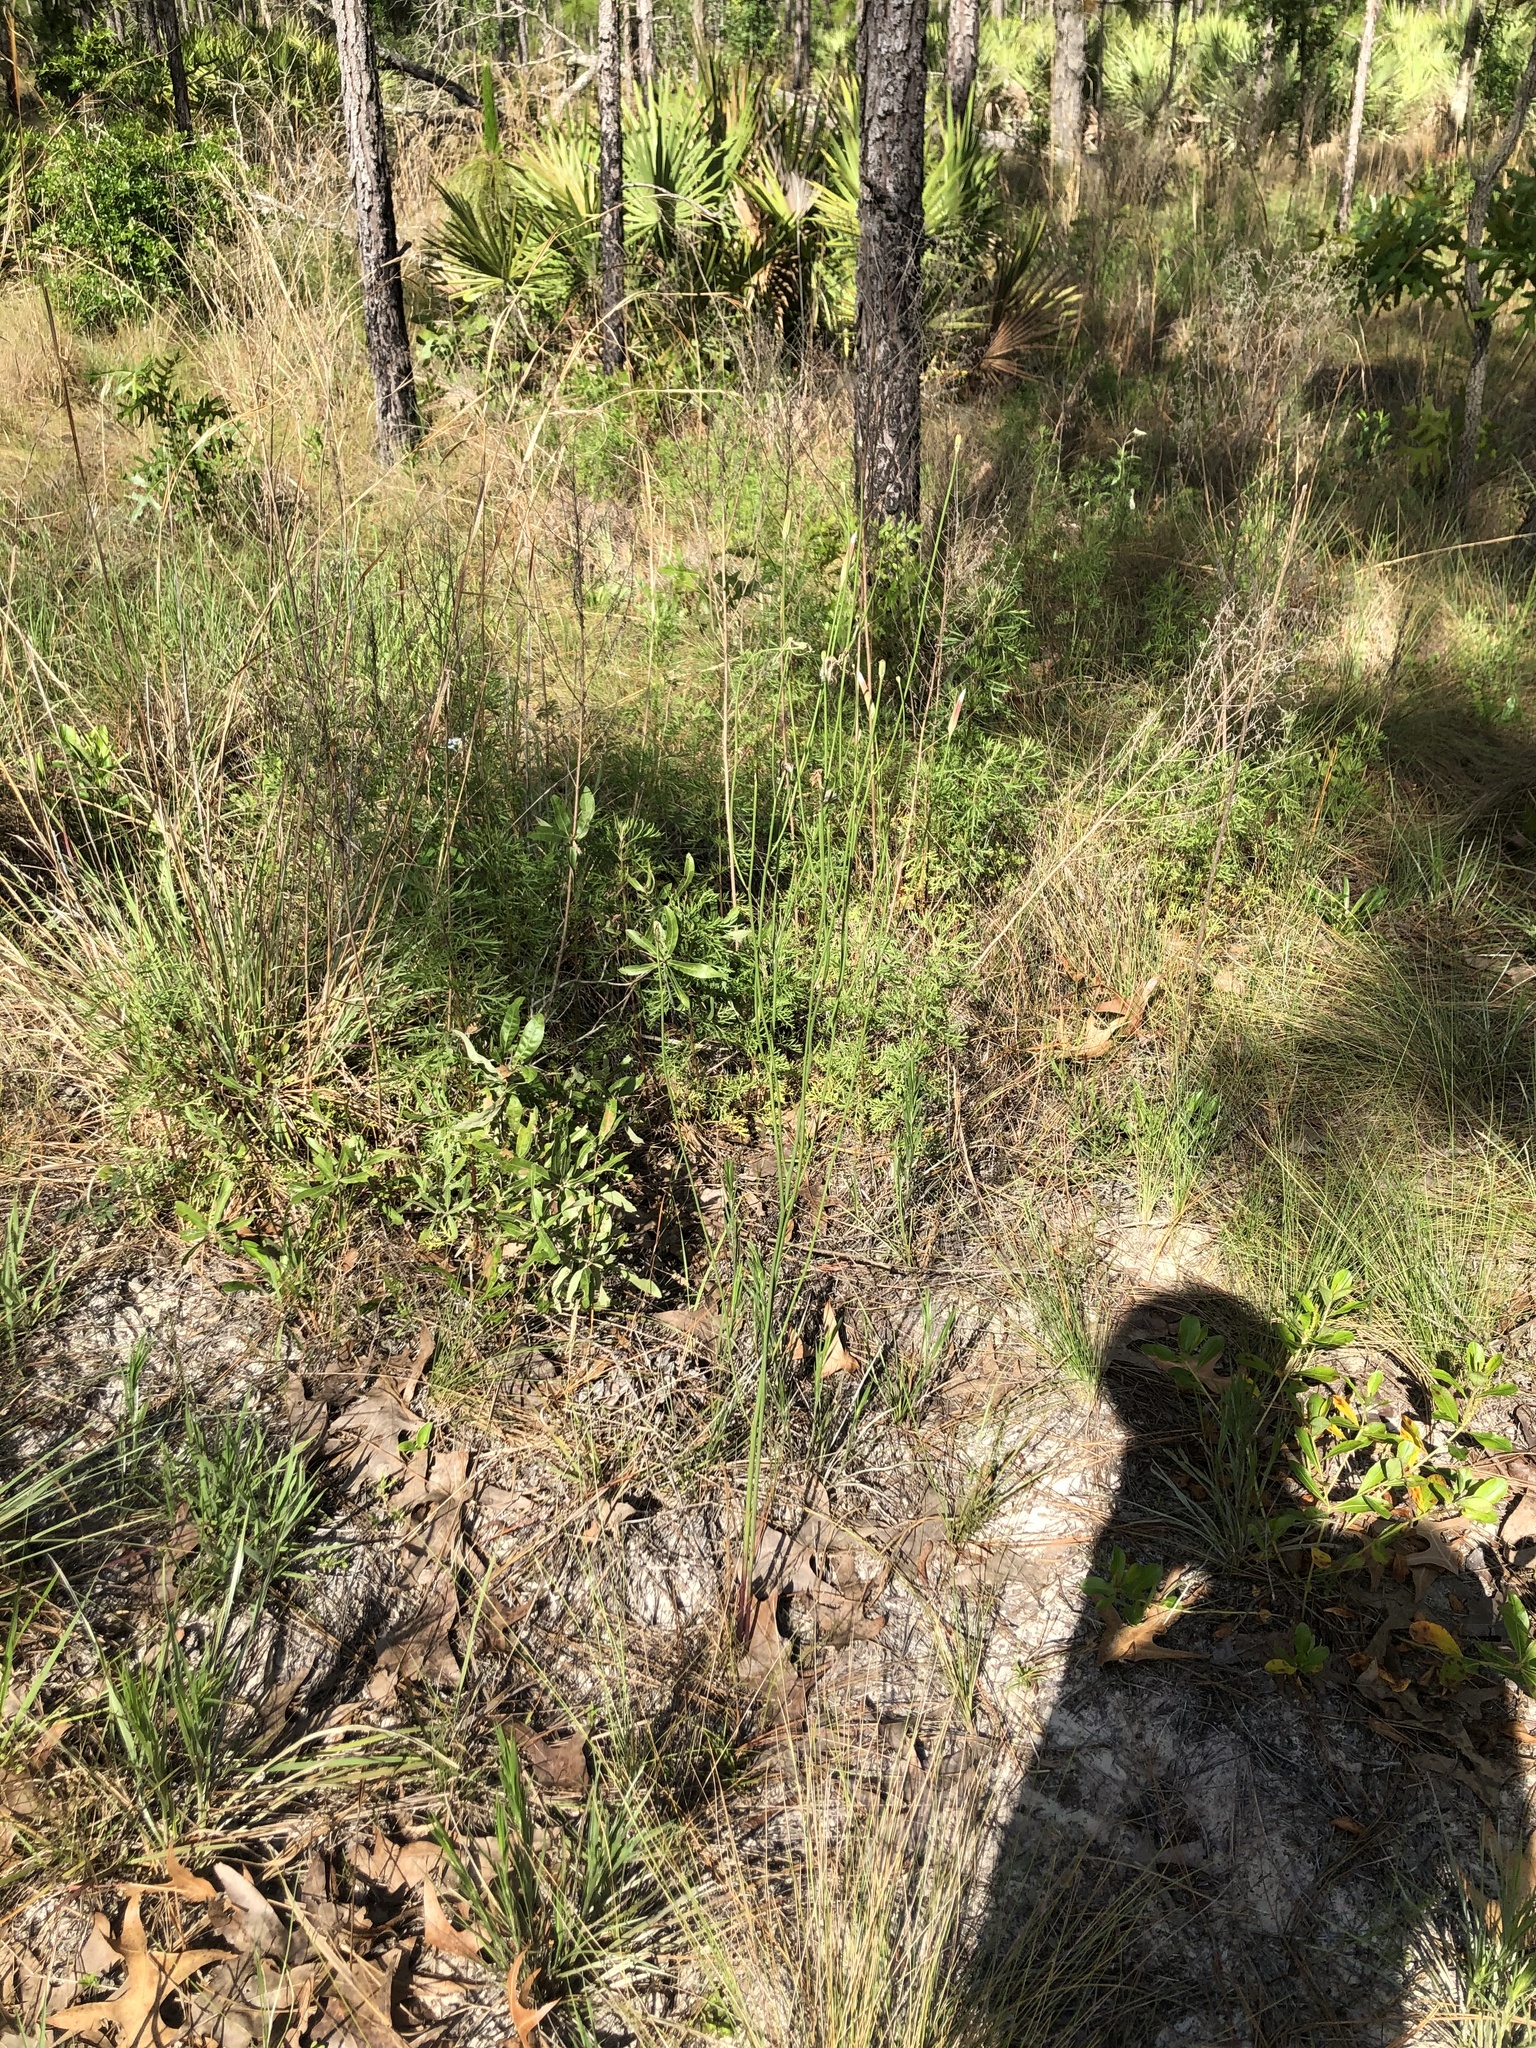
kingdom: Plantae
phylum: Tracheophyta
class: Magnoliopsida
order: Asterales
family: Asteraceae
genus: Lygodesmia
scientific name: Lygodesmia aphylla
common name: Rose-rush
